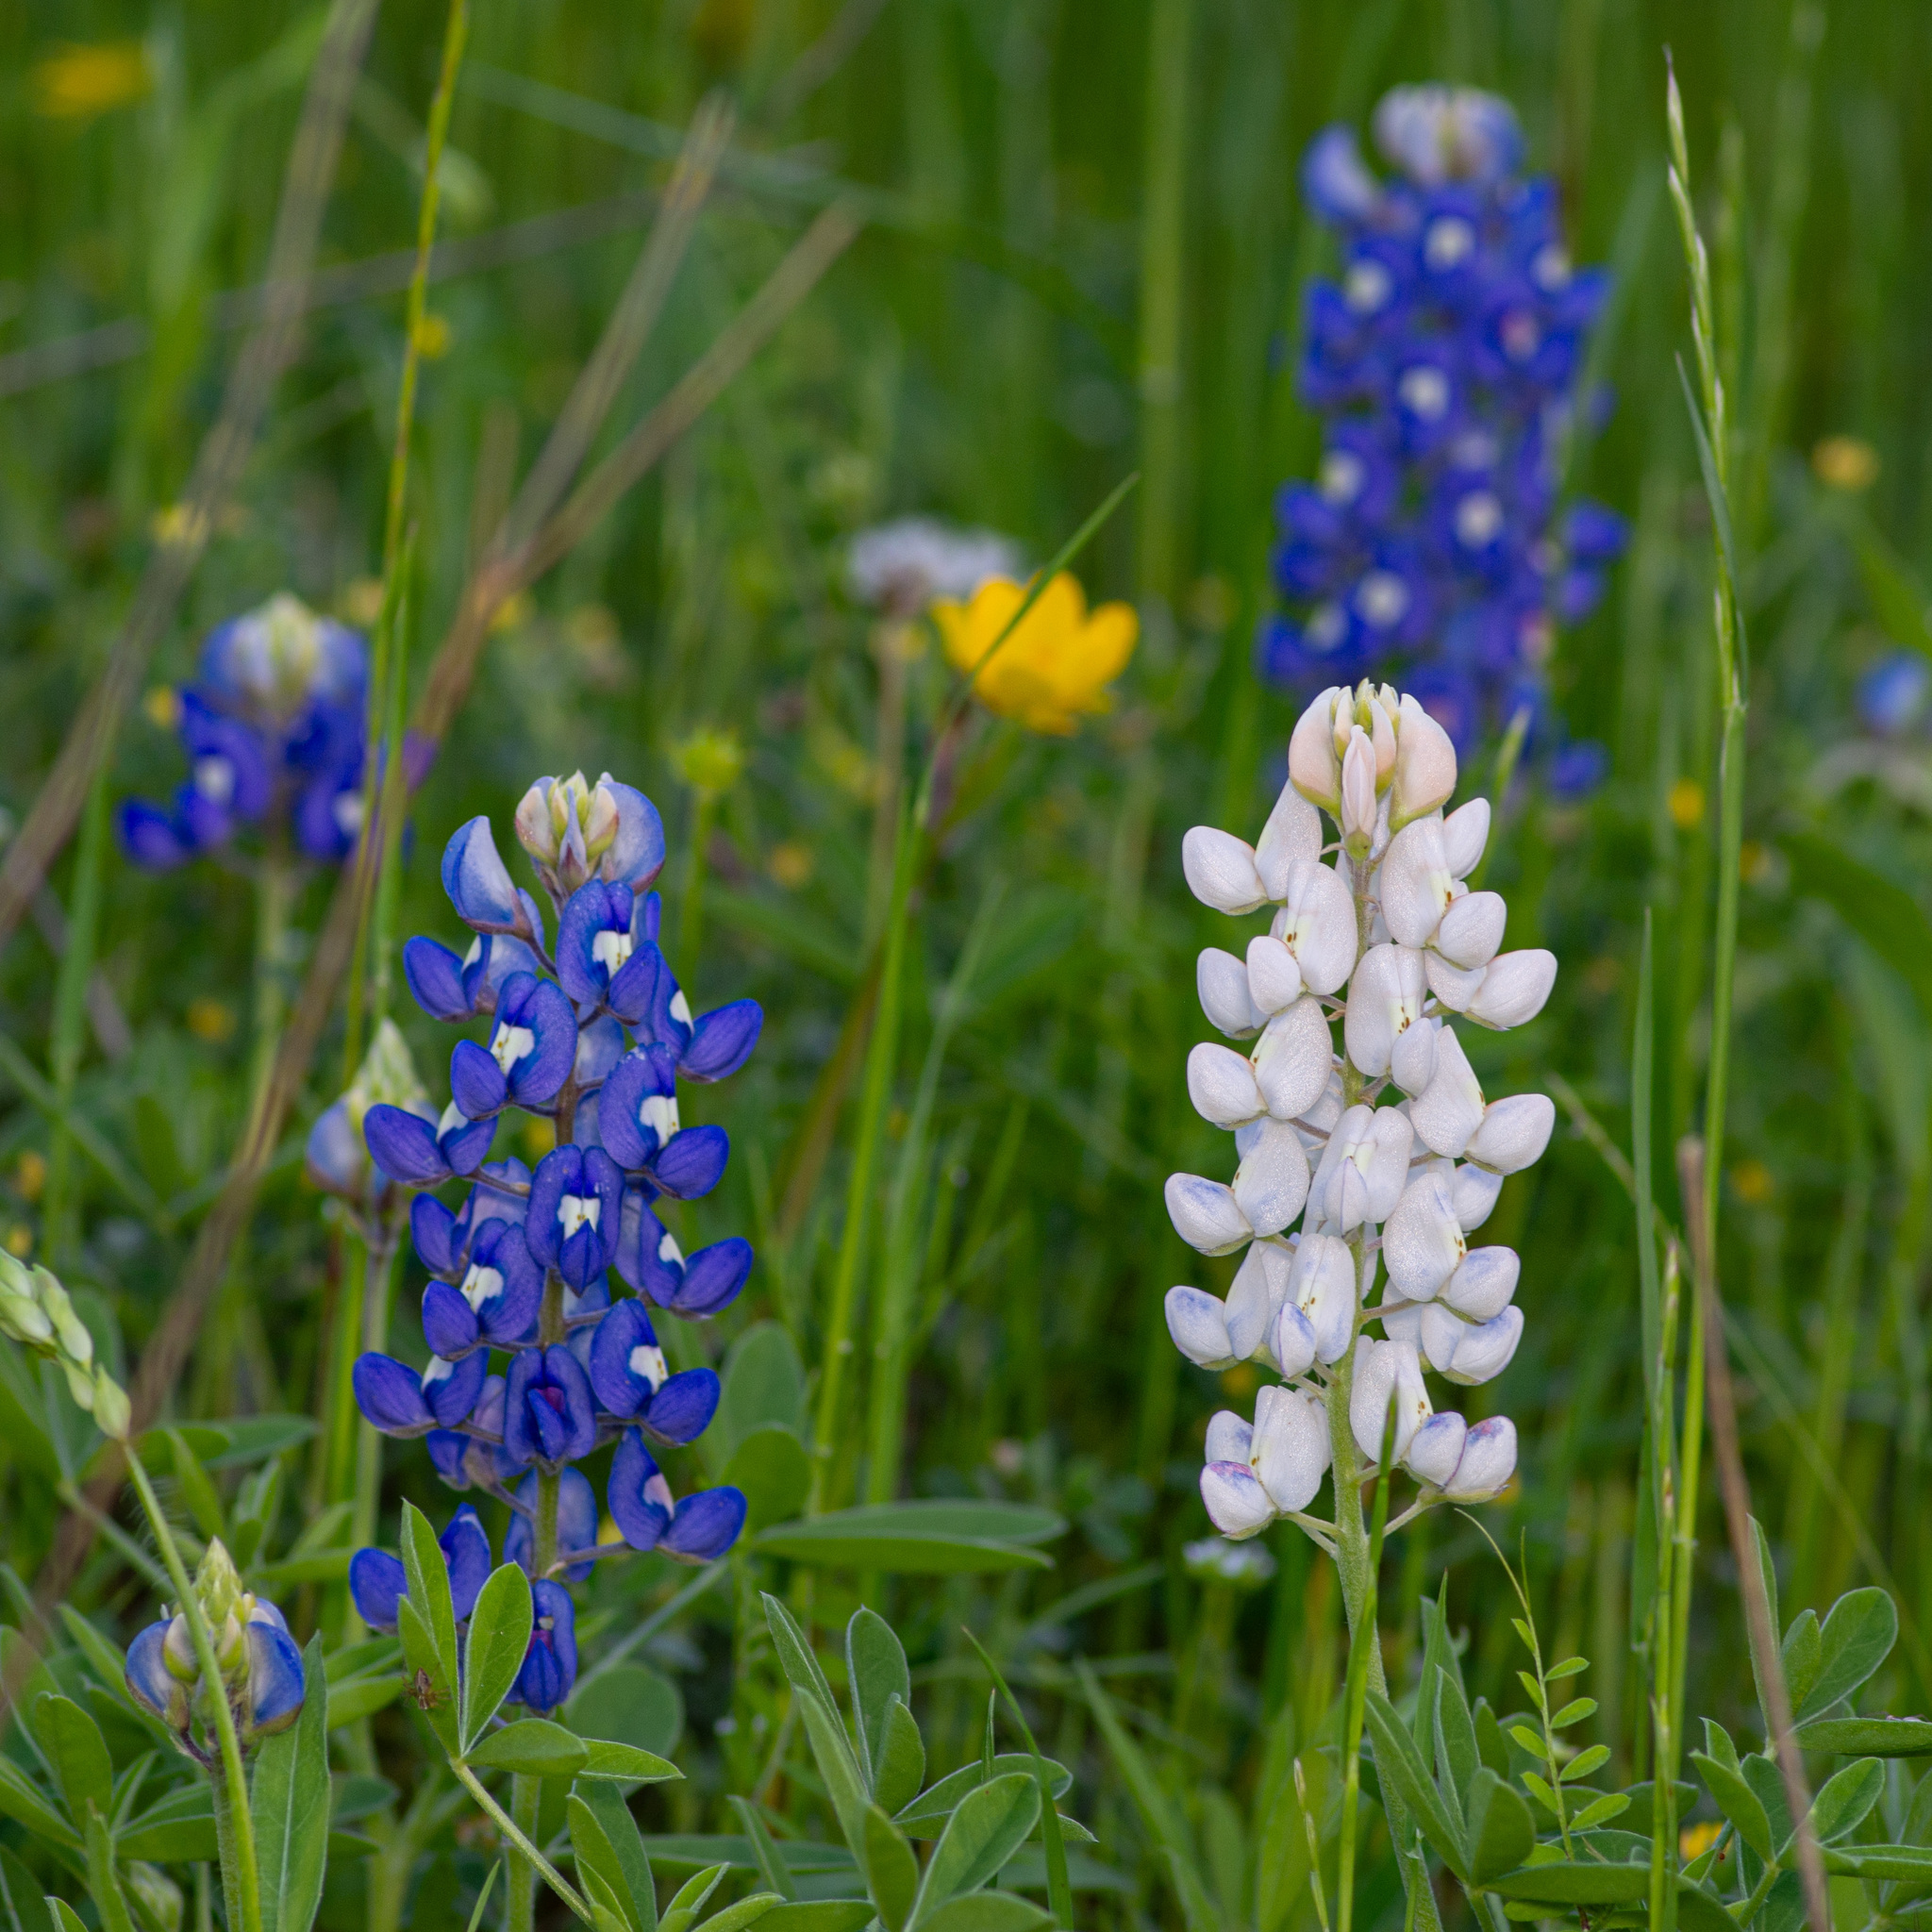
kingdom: Plantae
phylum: Tracheophyta
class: Magnoliopsida
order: Fabales
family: Fabaceae
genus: Lupinus
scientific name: Lupinus texensis
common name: Texas bluebonnet
